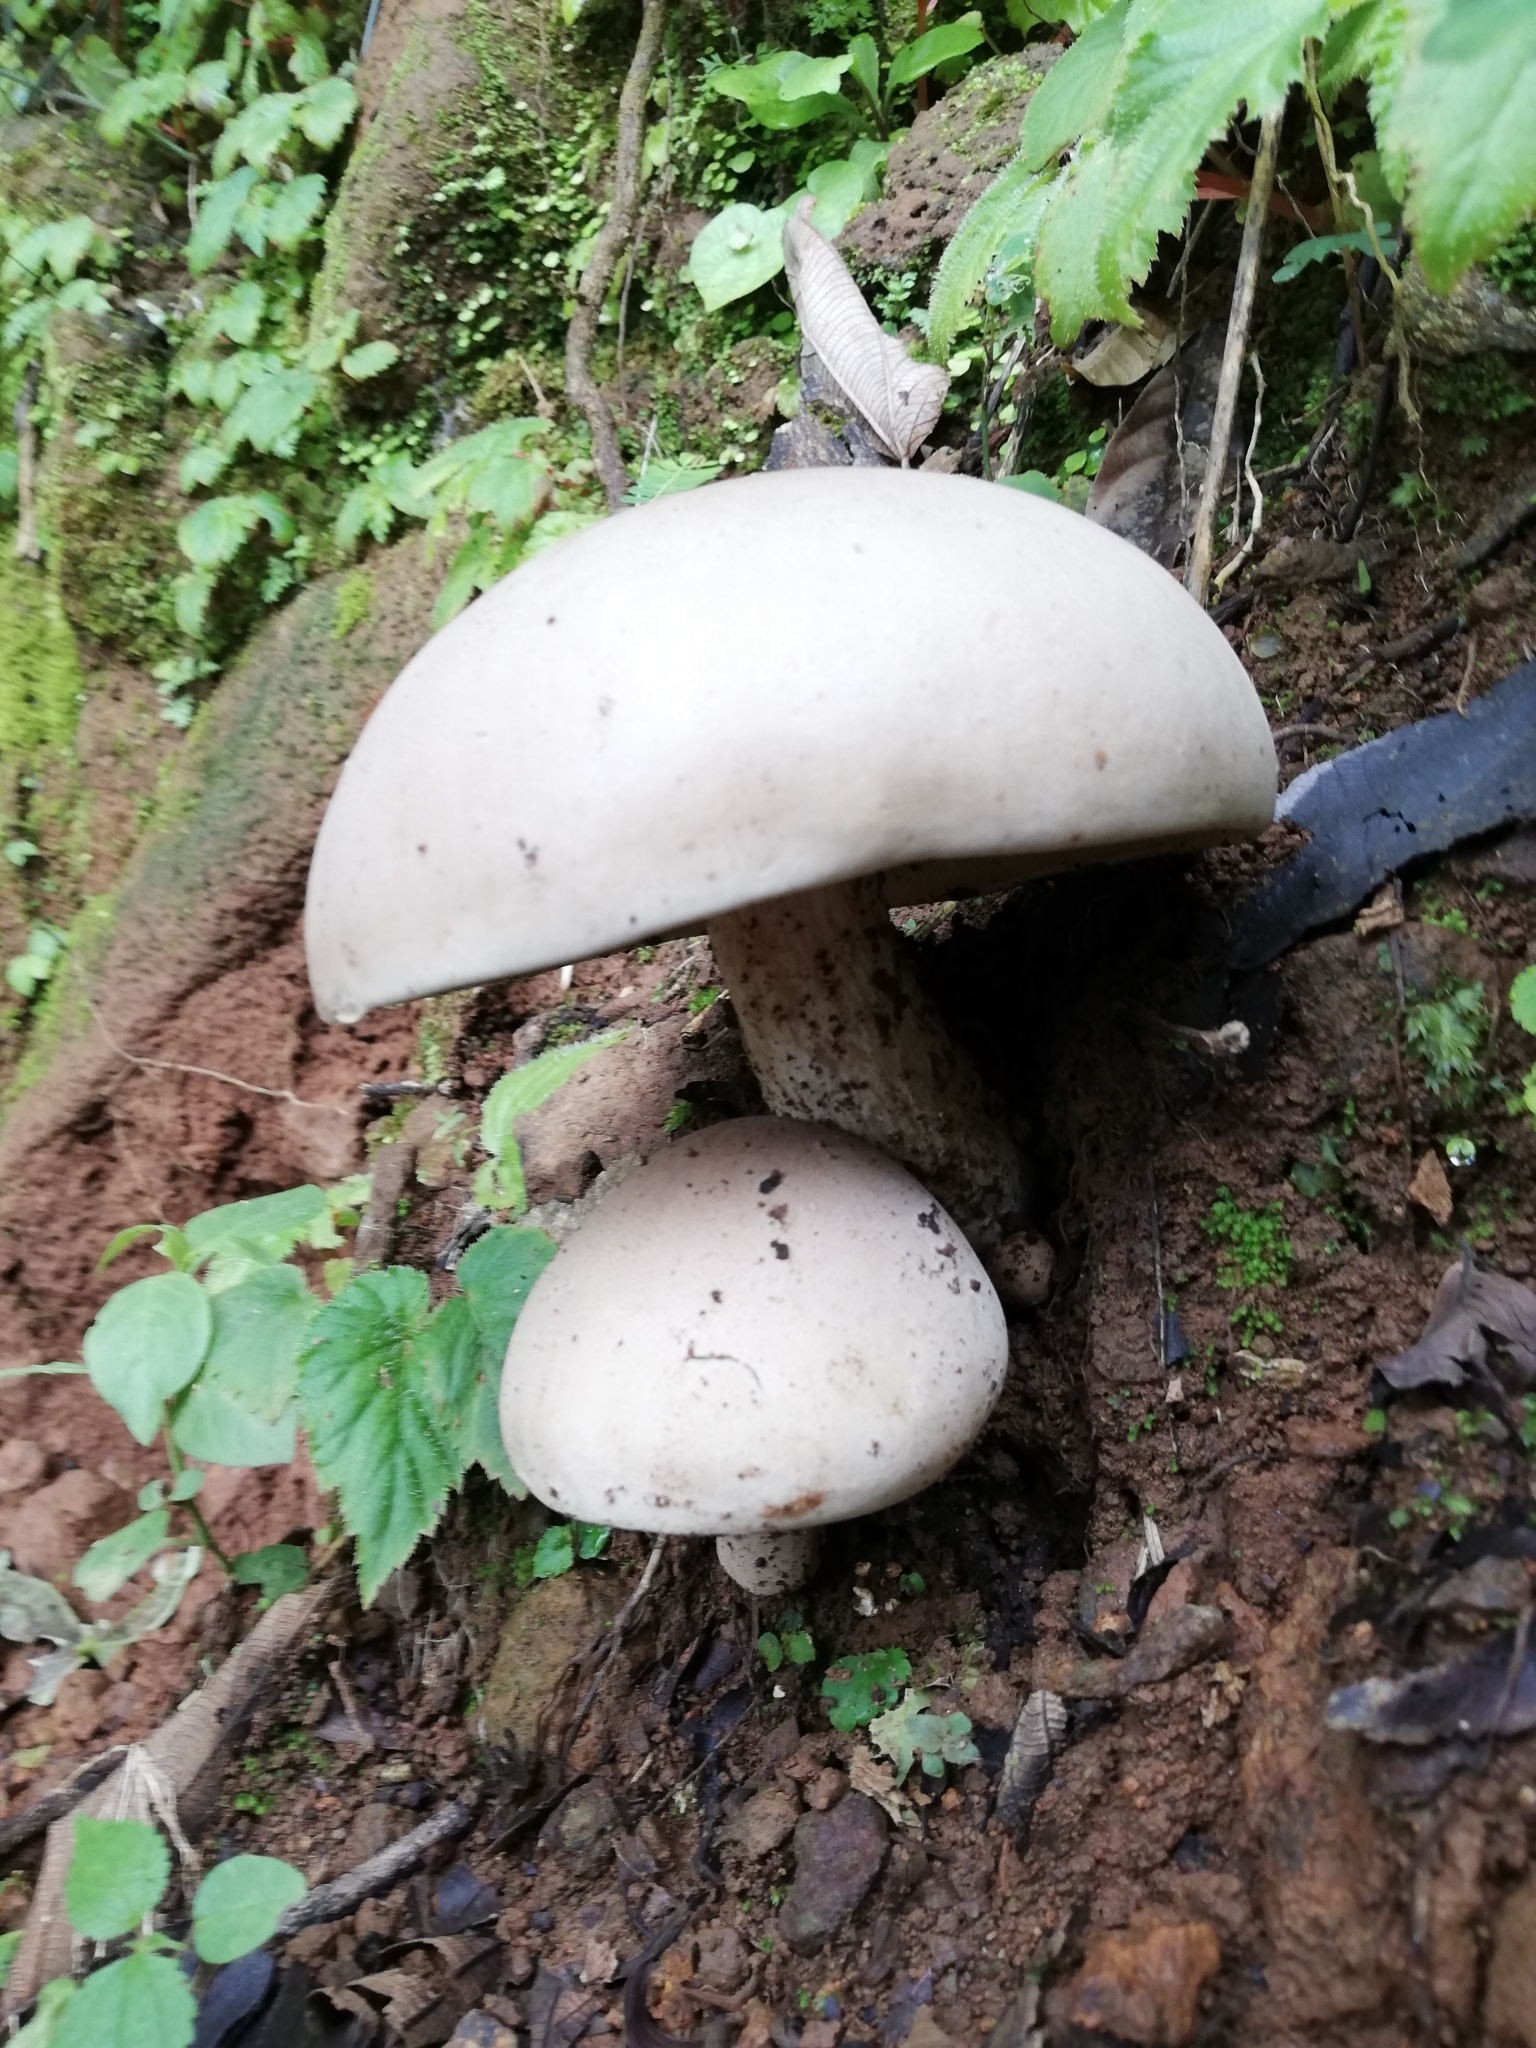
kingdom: Fungi
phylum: Basidiomycota
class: Agaricomycetes
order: Agaricales
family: Agaricaceae
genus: Agaricus
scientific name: Agaricus campestris
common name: Field mushroom
